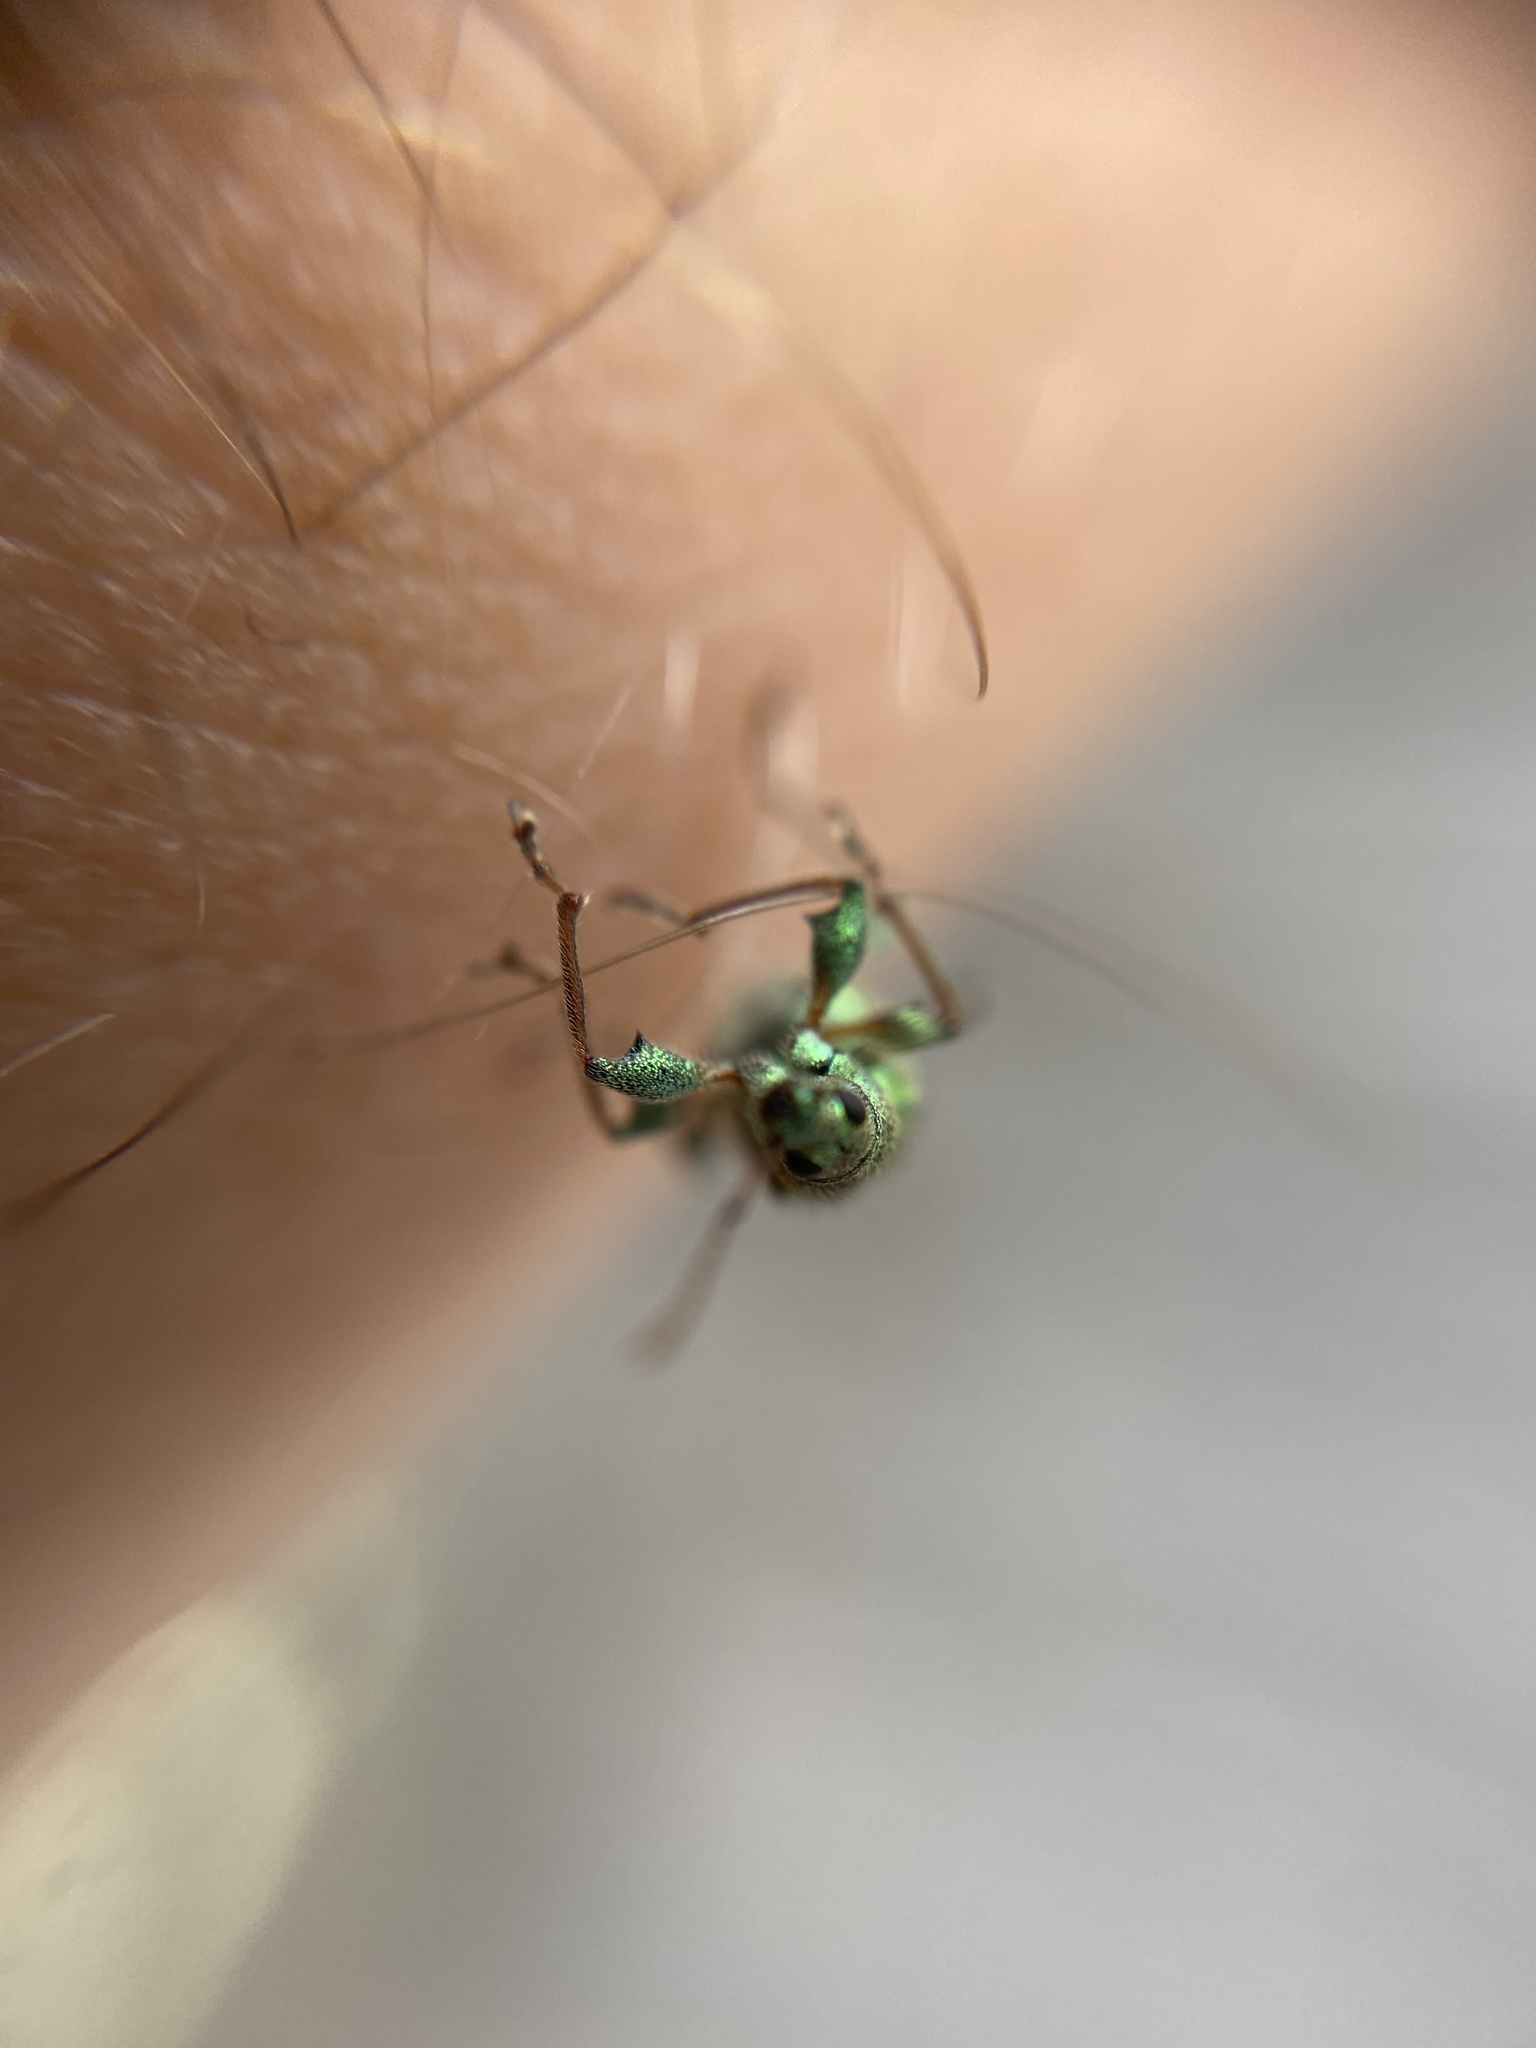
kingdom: Animalia
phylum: Arthropoda
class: Insecta
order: Coleoptera
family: Curculionidae
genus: Phyllobius
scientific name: Phyllobius arborator
